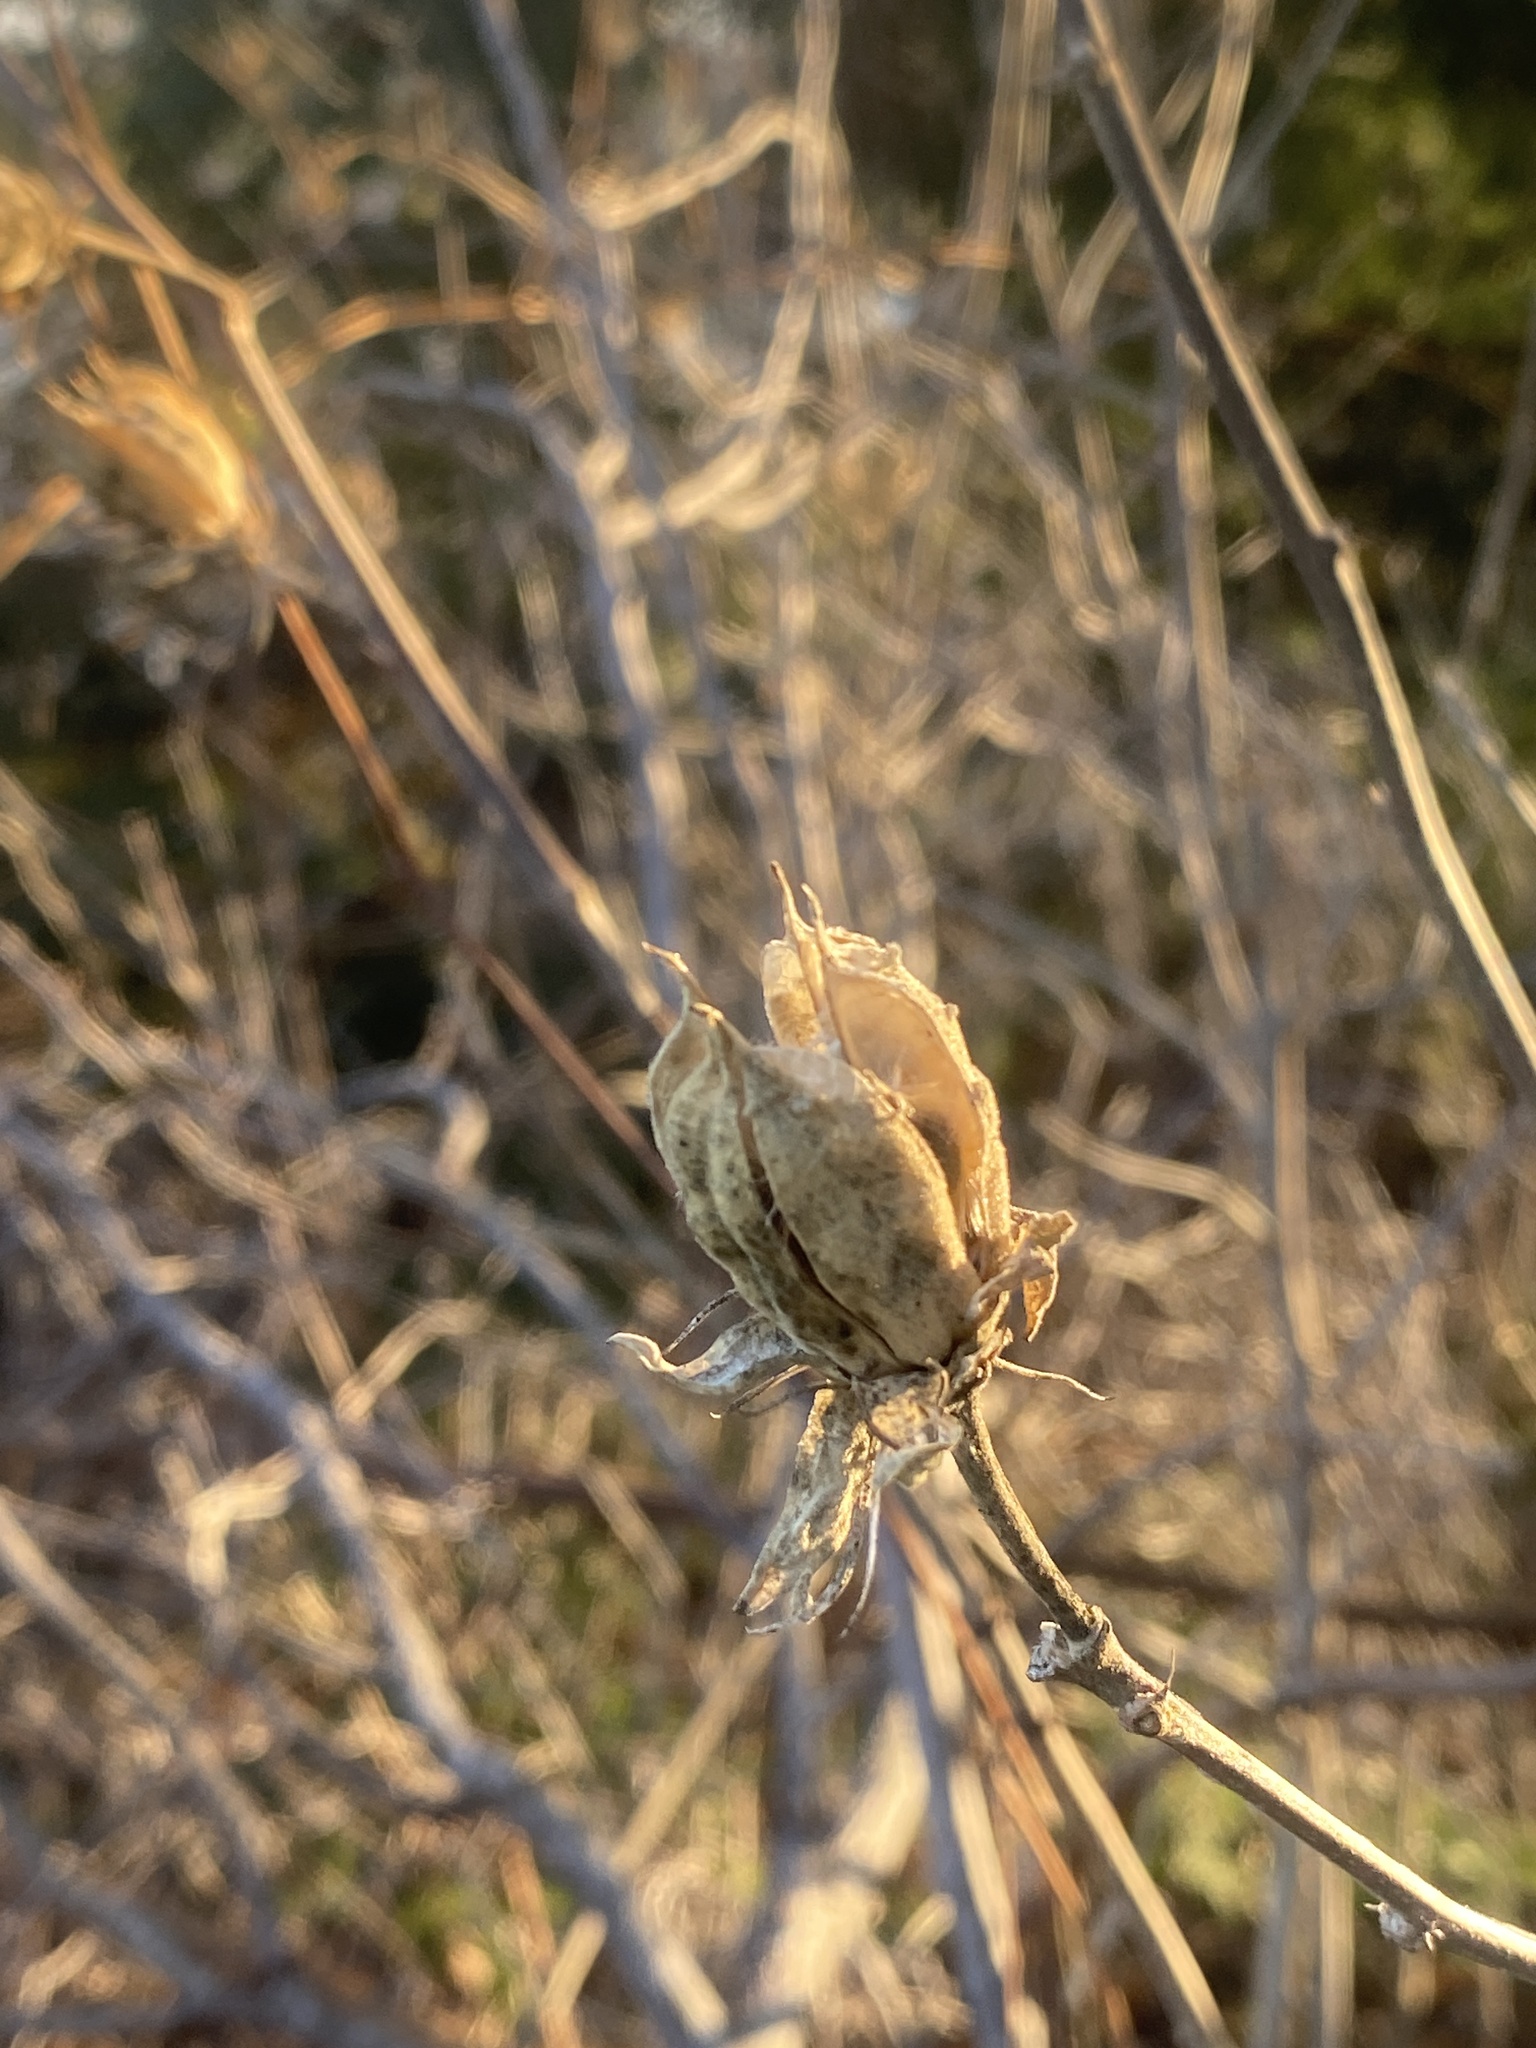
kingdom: Plantae
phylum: Tracheophyta
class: Magnoliopsida
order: Malvales
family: Malvaceae
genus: Hibiscus
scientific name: Hibiscus syriacus
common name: Syrian ketmia
